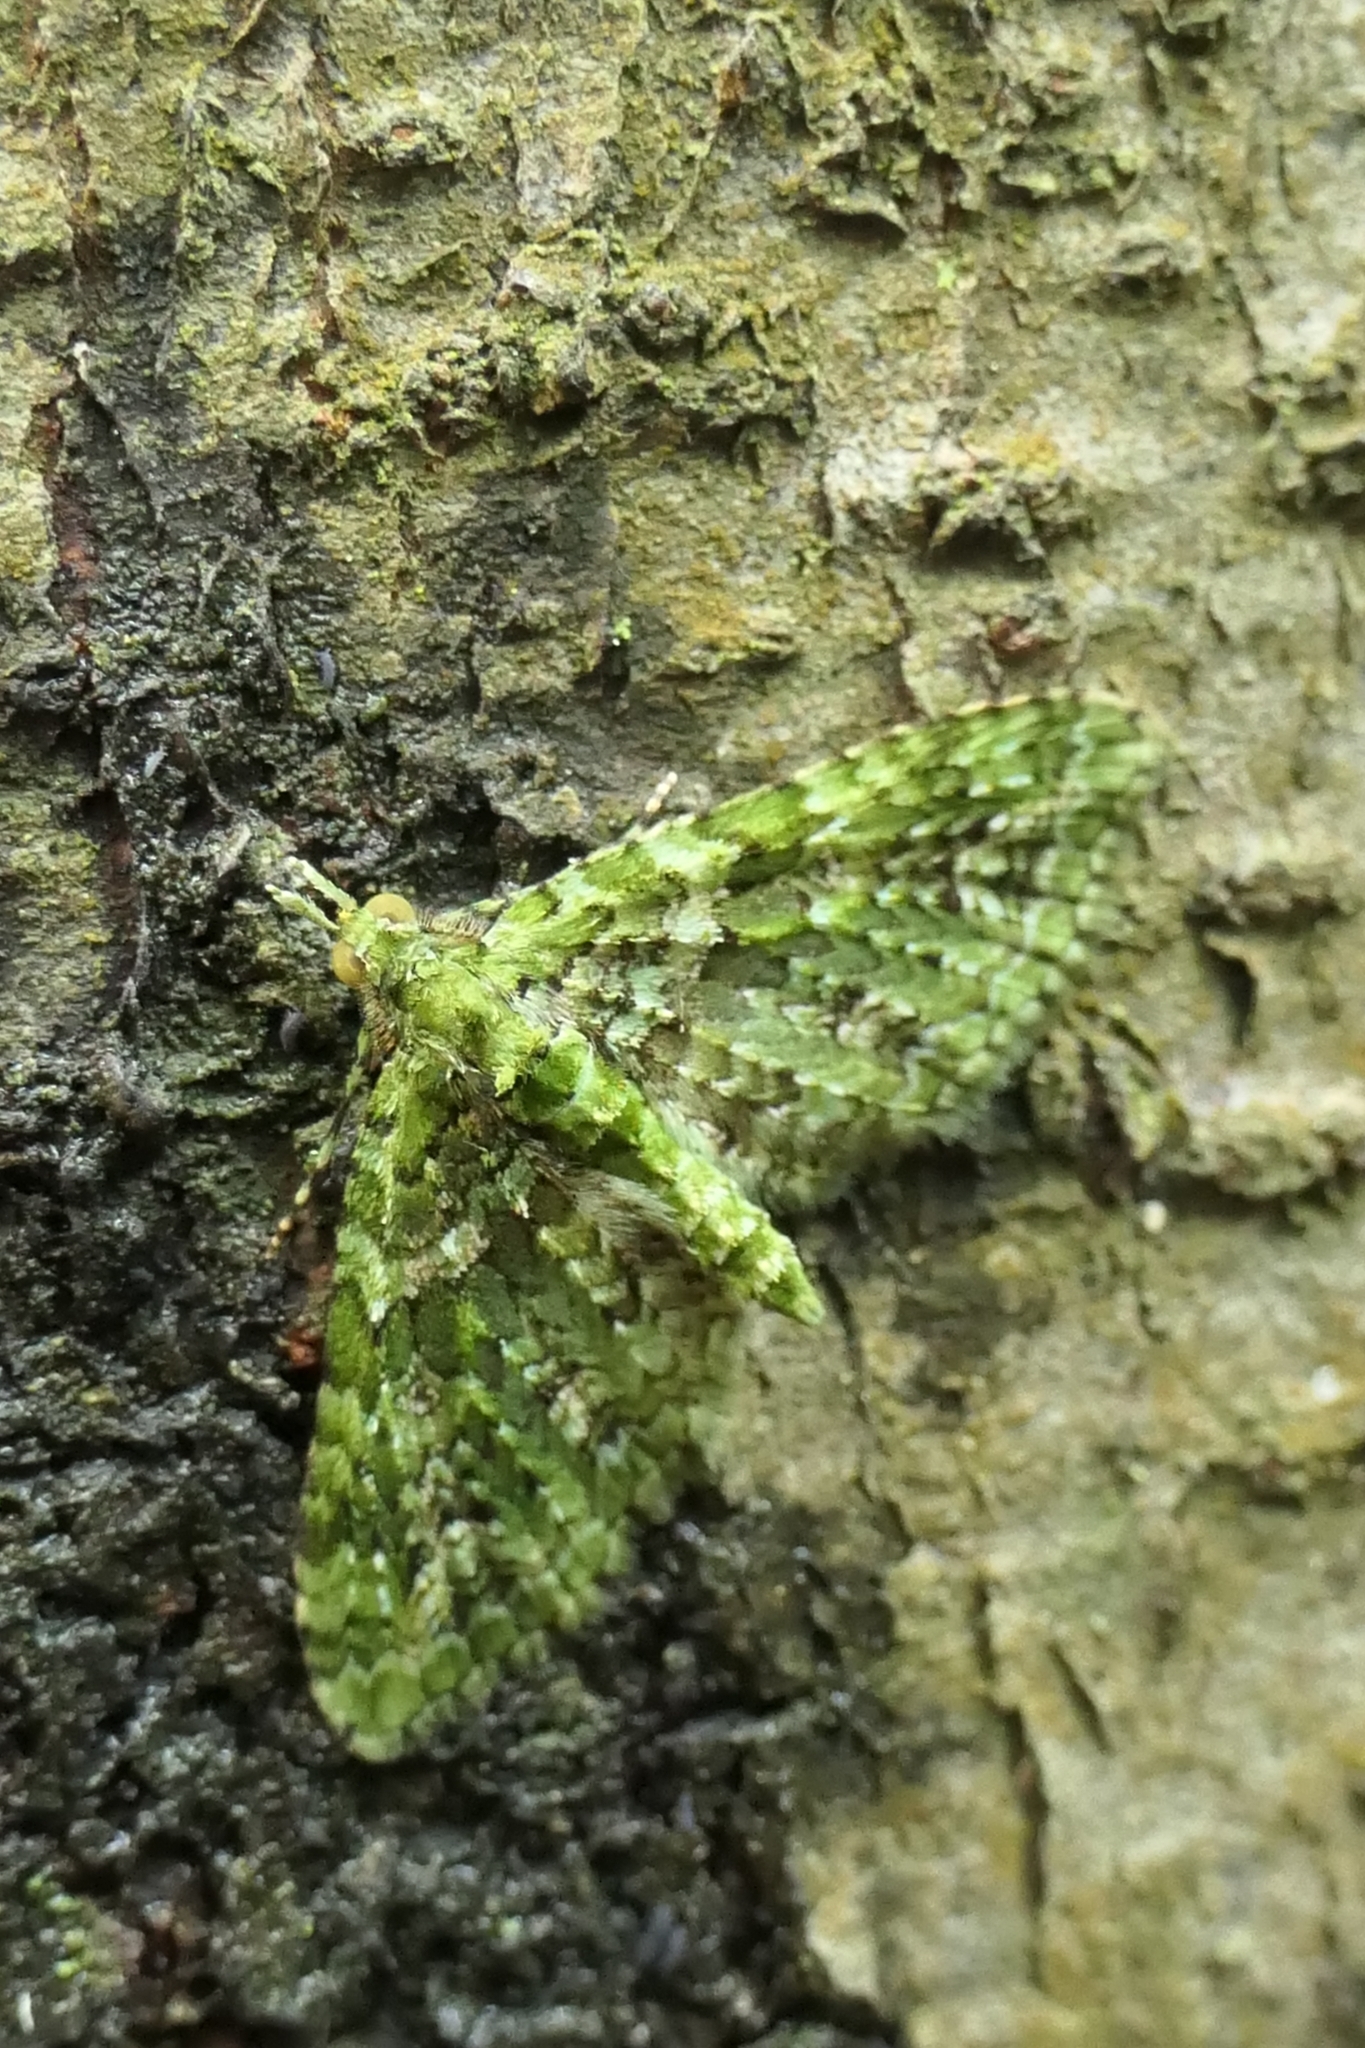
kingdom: Animalia
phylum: Arthropoda
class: Insecta
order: Lepidoptera
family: Geometridae
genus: Pasiphila
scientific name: Pasiphila muscosata
